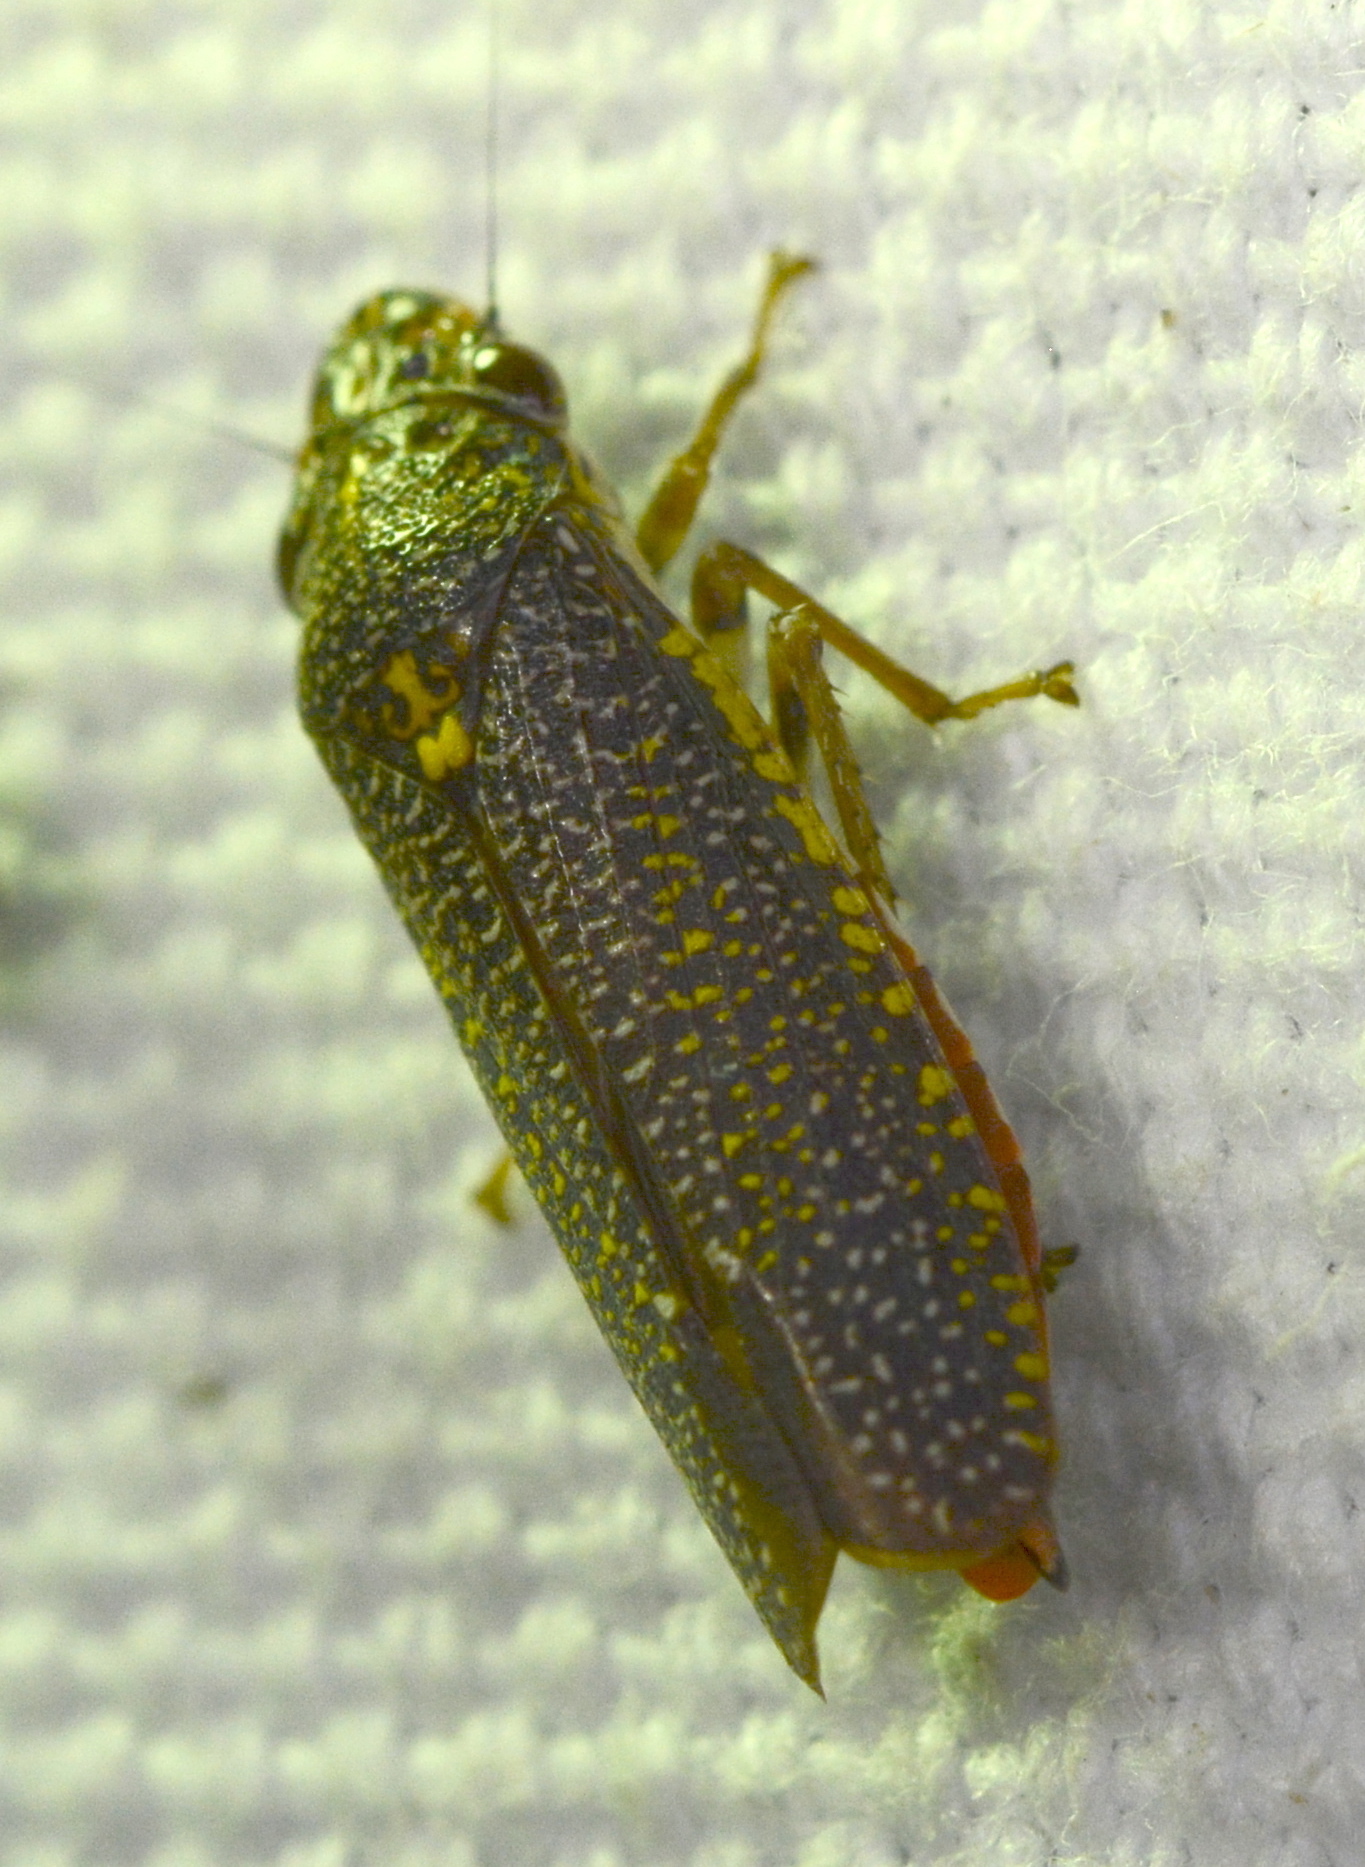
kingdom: Animalia
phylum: Arthropoda
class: Insecta
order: Hemiptera
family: Cicadellidae
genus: Paraulacizes
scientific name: Paraulacizes irrorata
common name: Speckled sharpshooter
